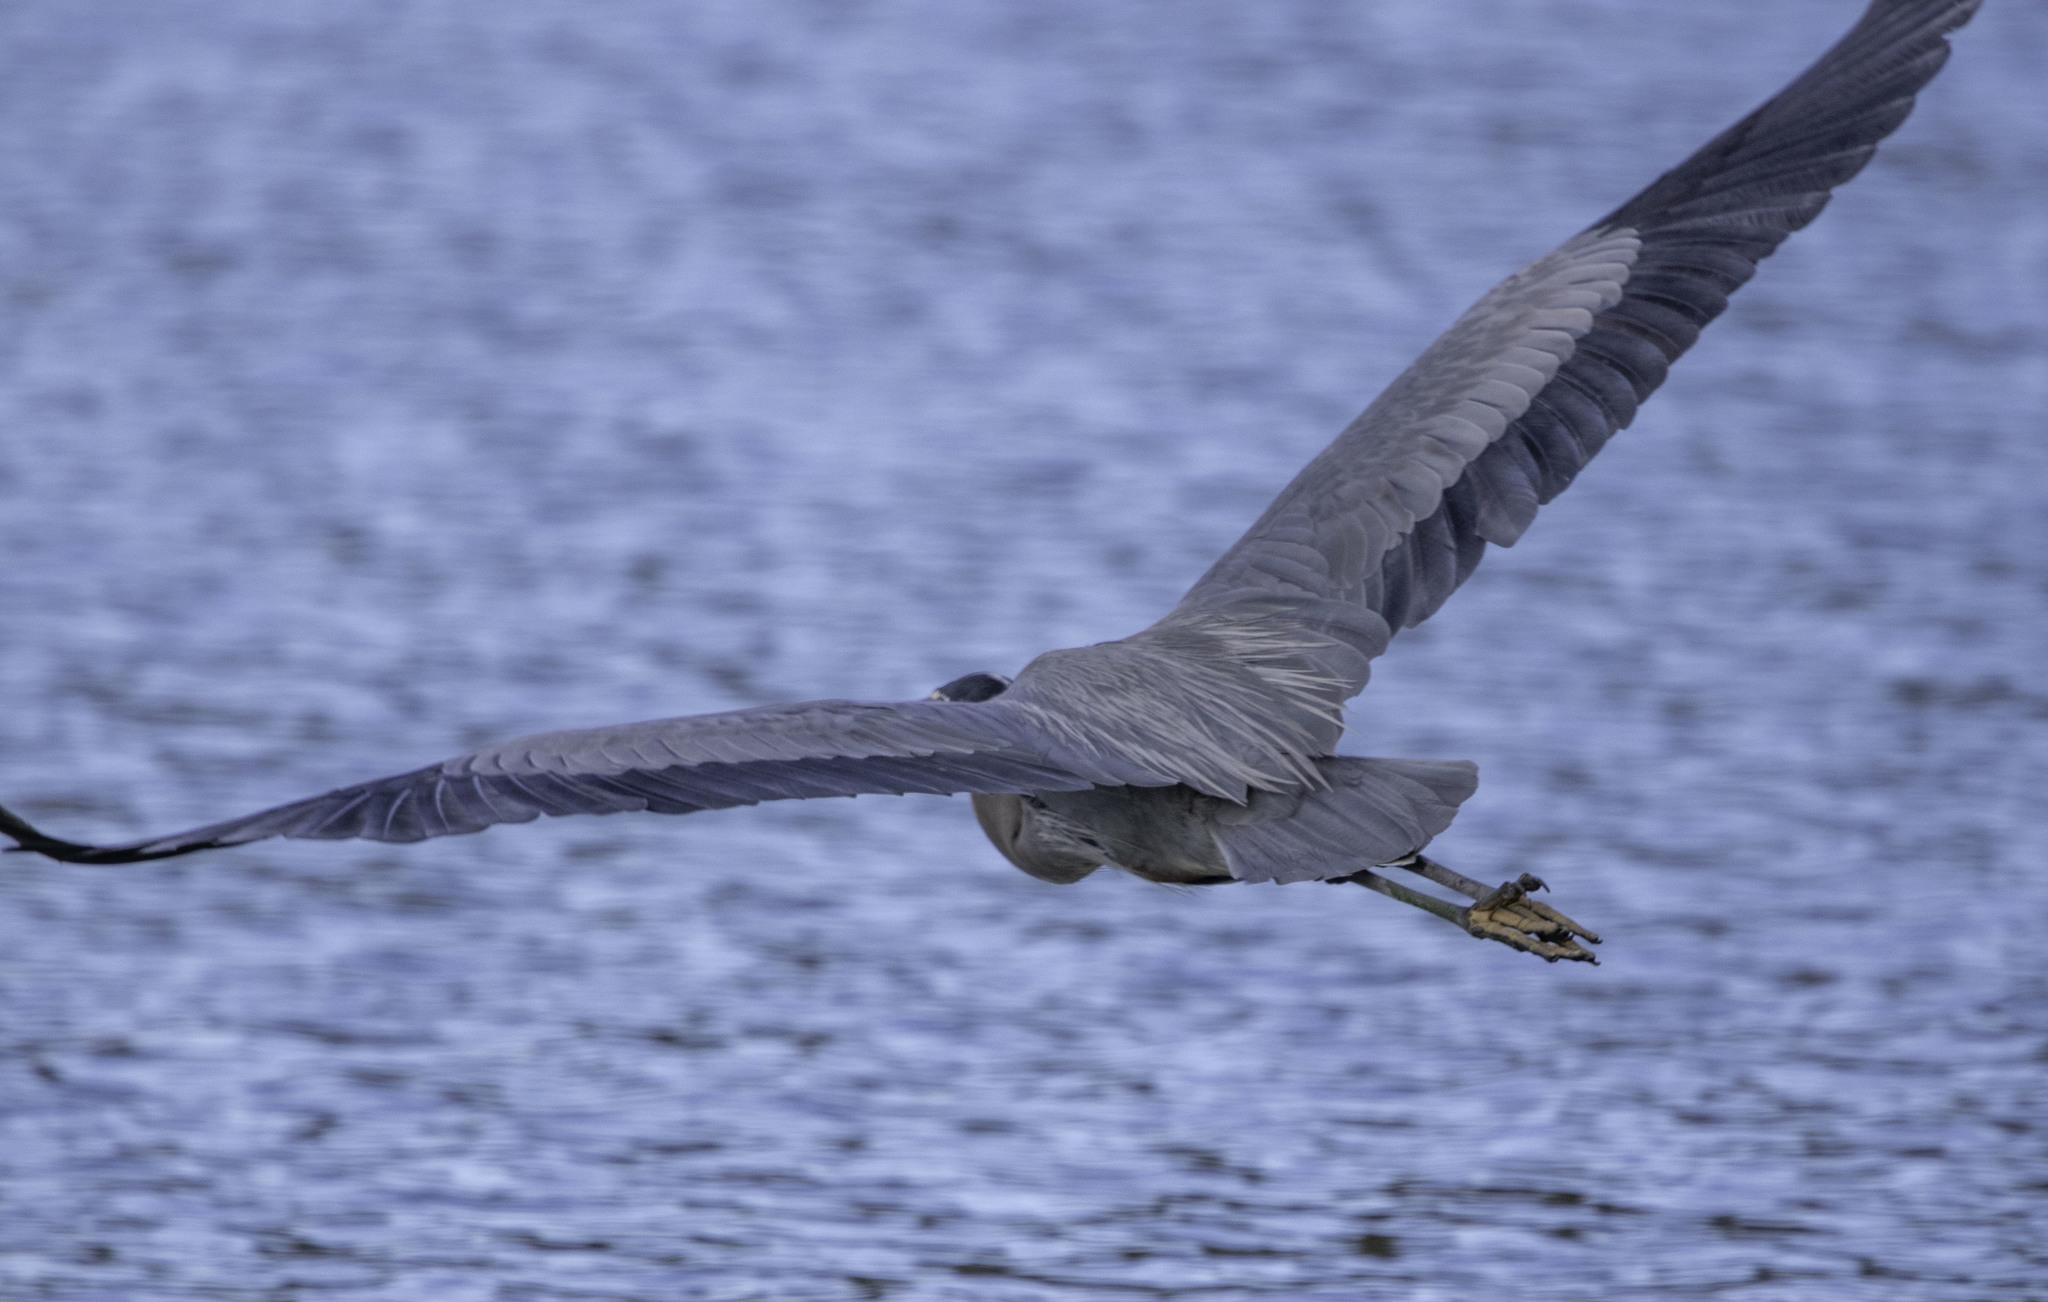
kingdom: Animalia
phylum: Chordata
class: Aves
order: Pelecaniformes
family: Ardeidae
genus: Ardea
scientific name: Ardea herodias
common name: Great blue heron
